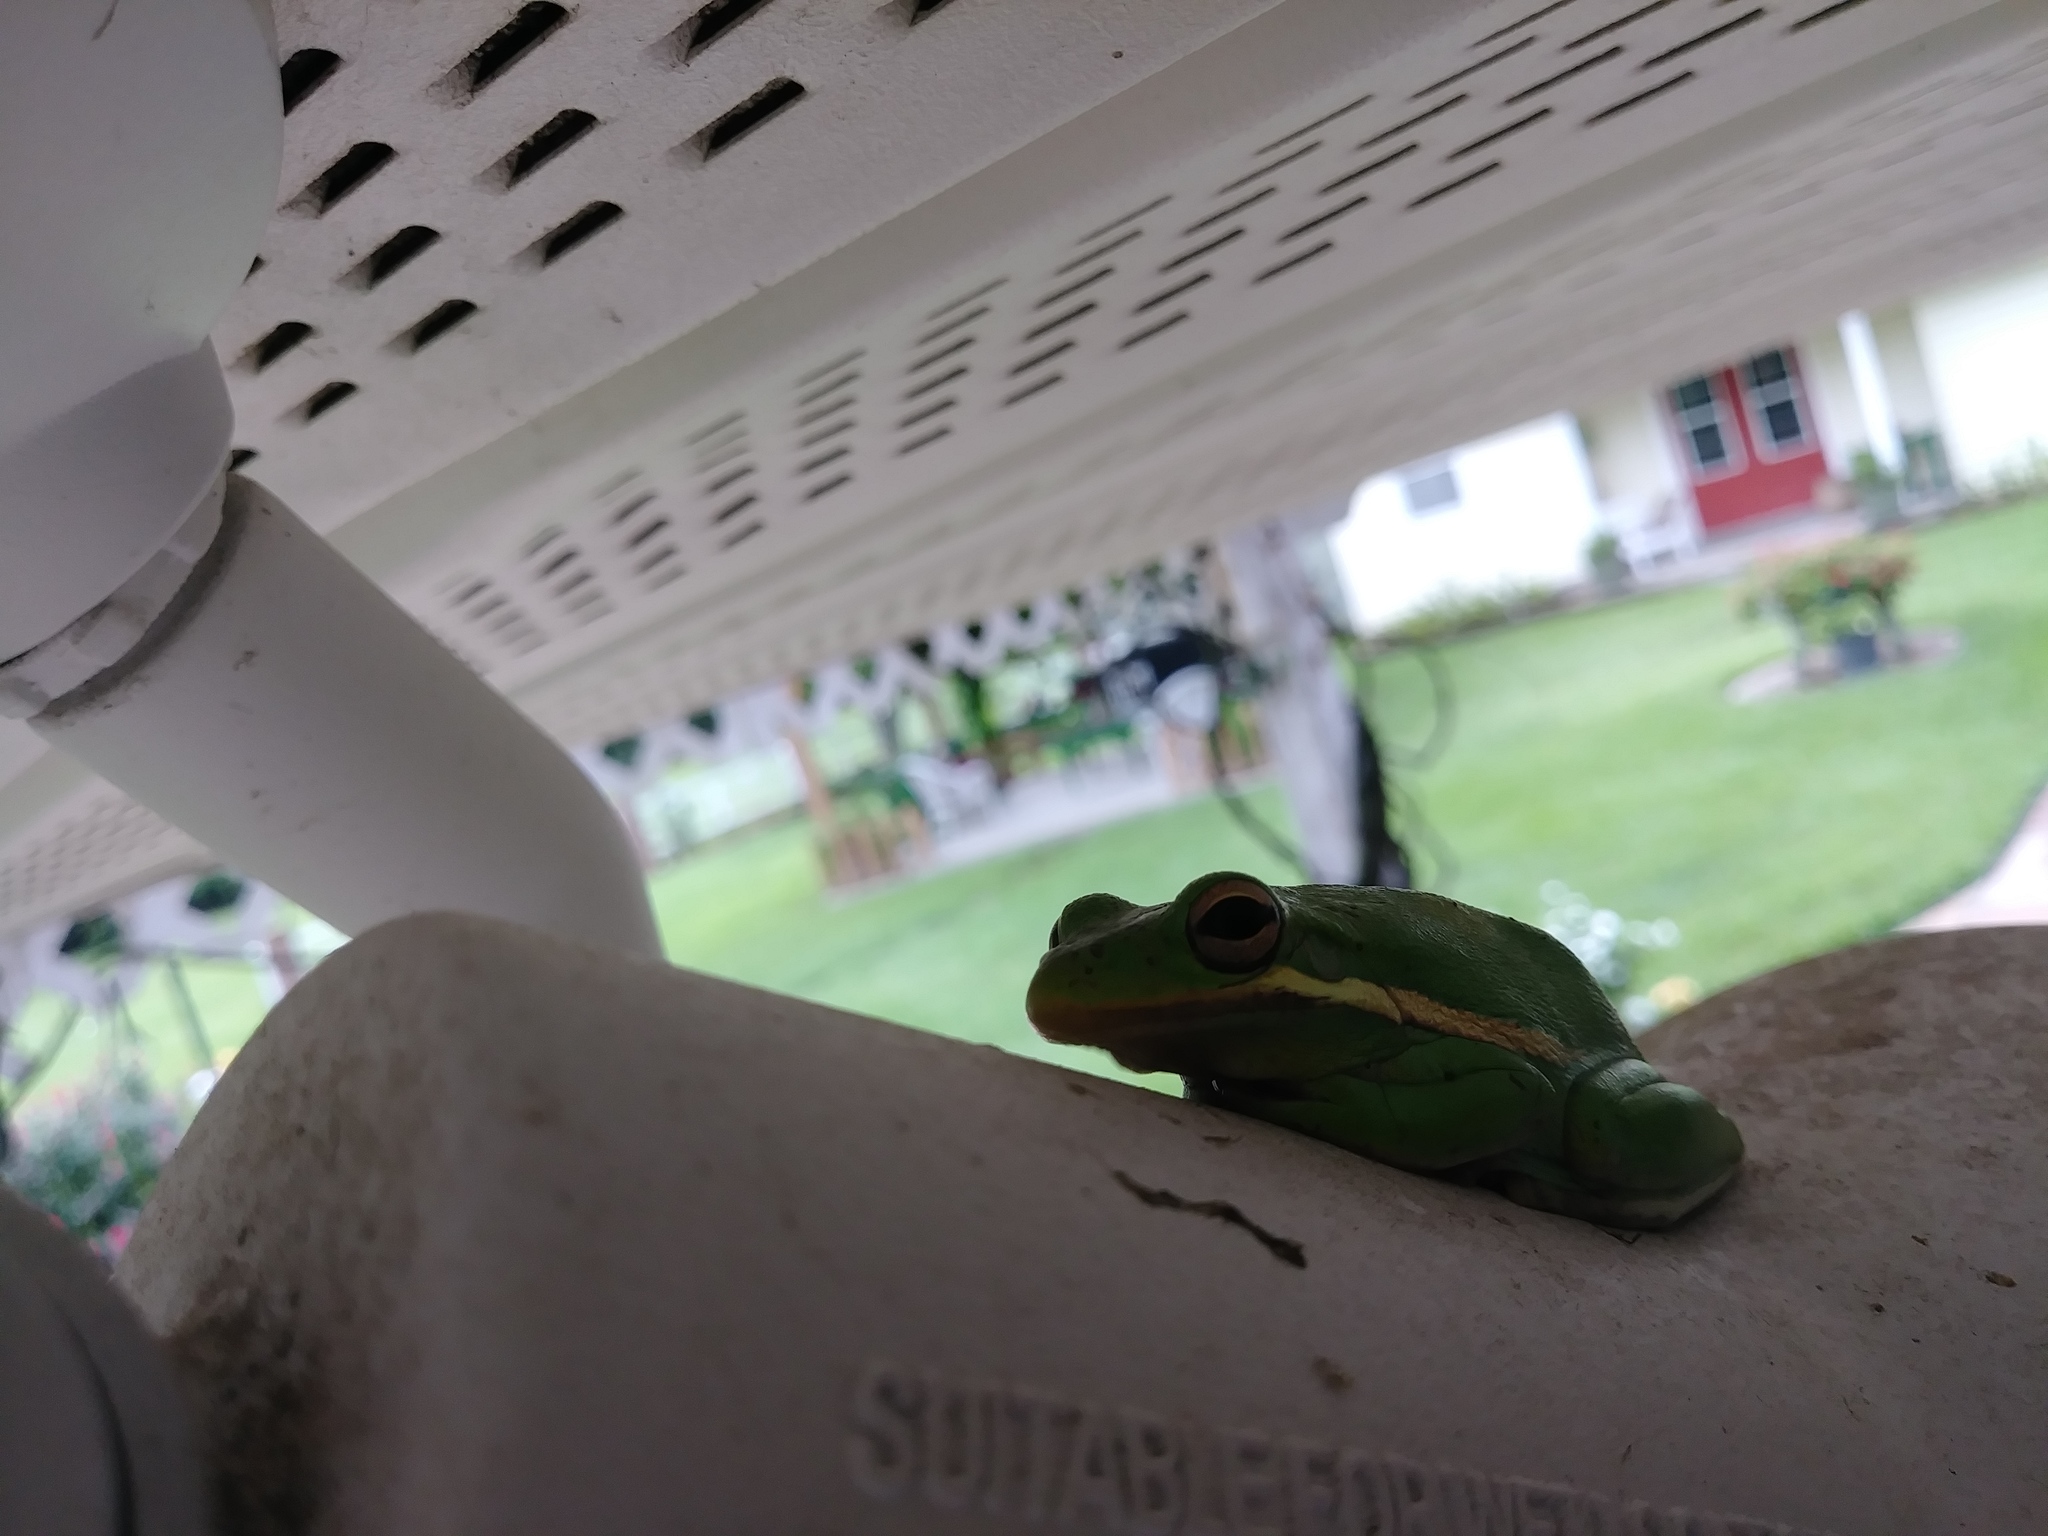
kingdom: Animalia
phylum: Chordata
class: Amphibia
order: Anura
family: Hylidae
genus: Dryophytes
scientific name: Dryophytes cinereus
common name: Green treefrog
